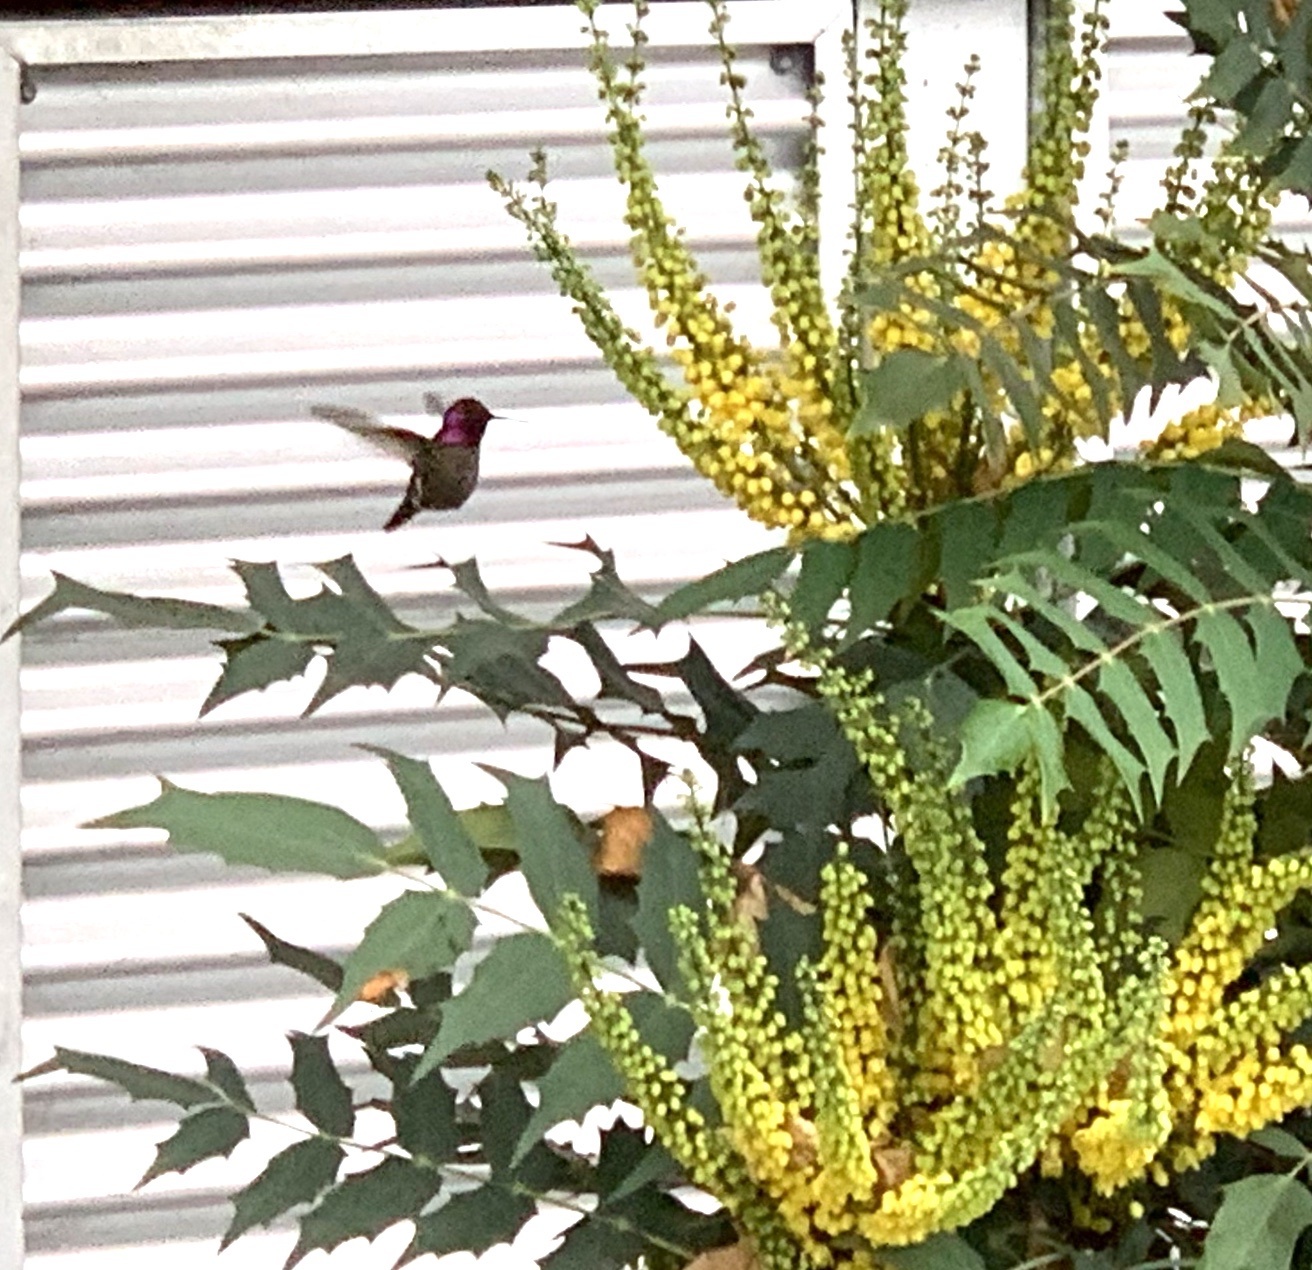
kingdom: Animalia
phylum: Chordata
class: Aves
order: Apodiformes
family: Trochilidae
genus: Calypte
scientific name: Calypte anna
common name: Anna's hummingbird
